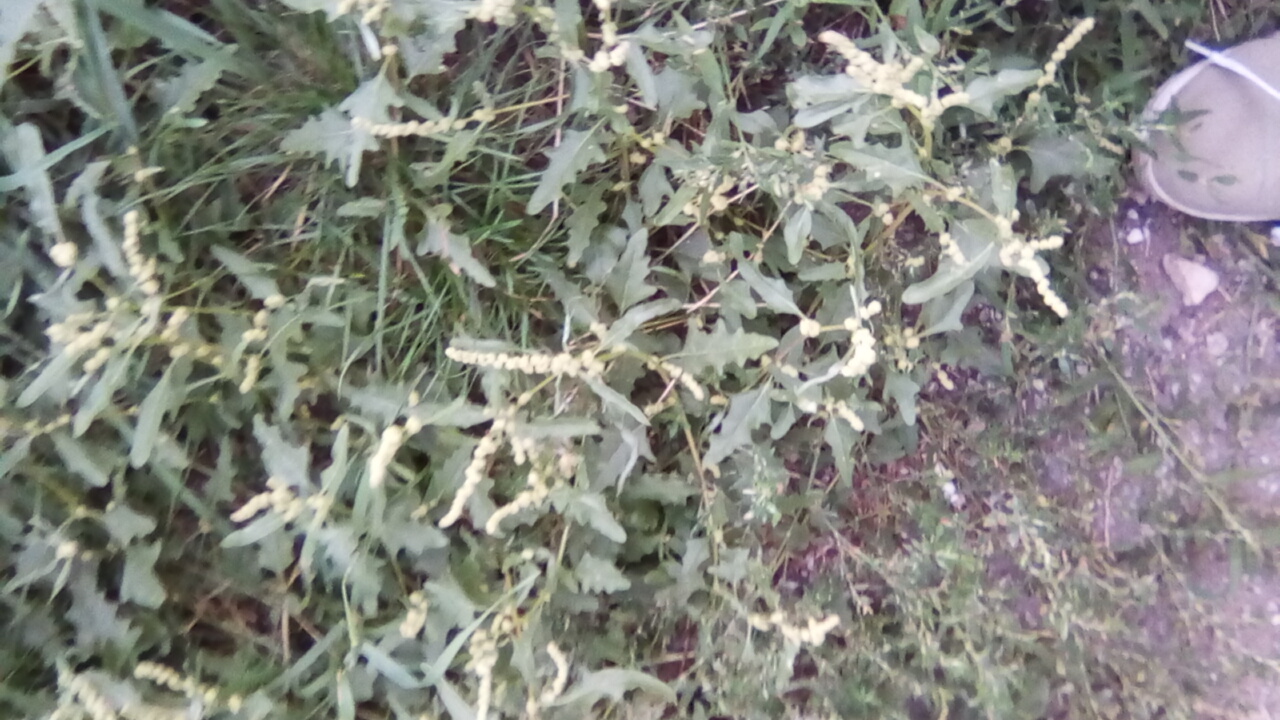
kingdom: Plantae
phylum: Tracheophyta
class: Magnoliopsida
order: Caryophyllales
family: Amaranthaceae
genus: Atriplex
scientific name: Atriplex tatarica
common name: Tatarian orache
